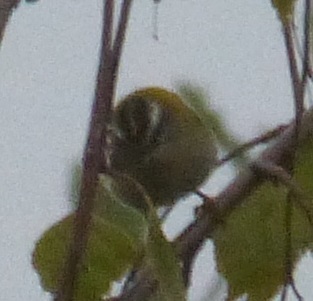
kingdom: Animalia
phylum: Chordata
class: Aves
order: Passeriformes
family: Regulidae
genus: Regulus
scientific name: Regulus ignicapilla
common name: Firecrest
